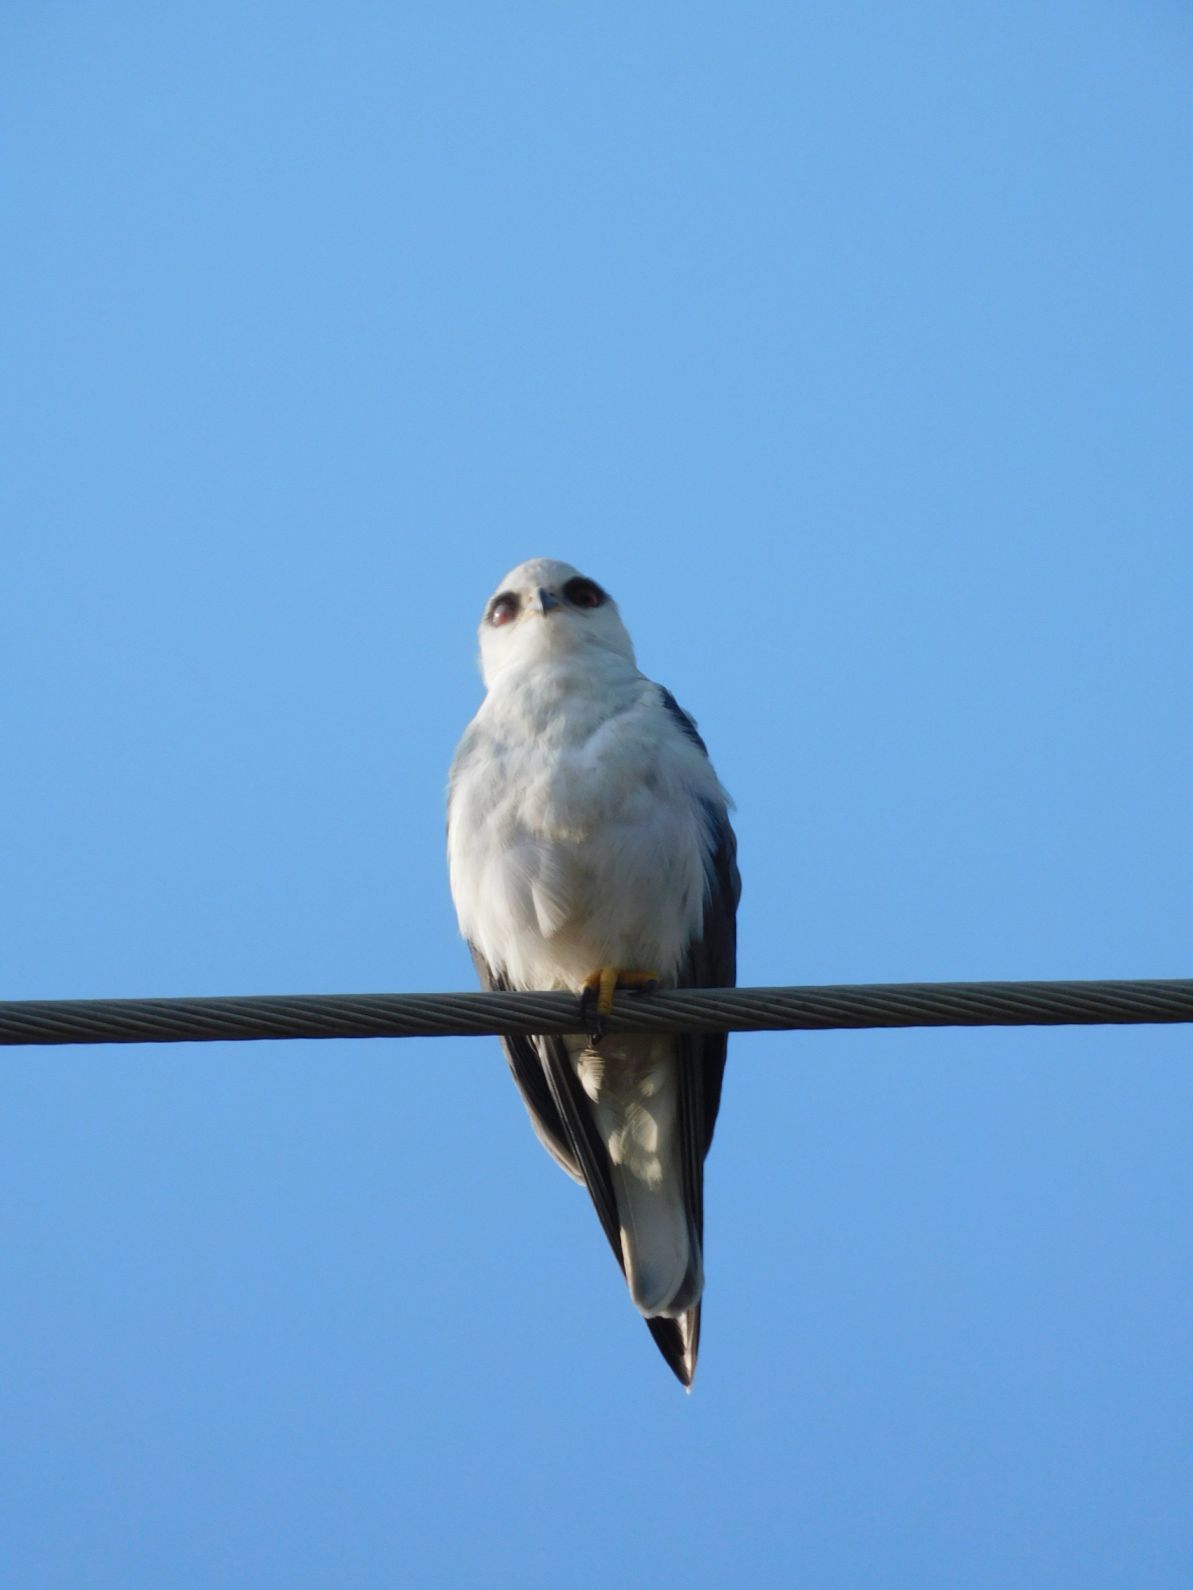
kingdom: Animalia
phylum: Chordata
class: Aves
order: Accipitriformes
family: Accipitridae
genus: Elanus
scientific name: Elanus caeruleus
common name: Black-winged kite
